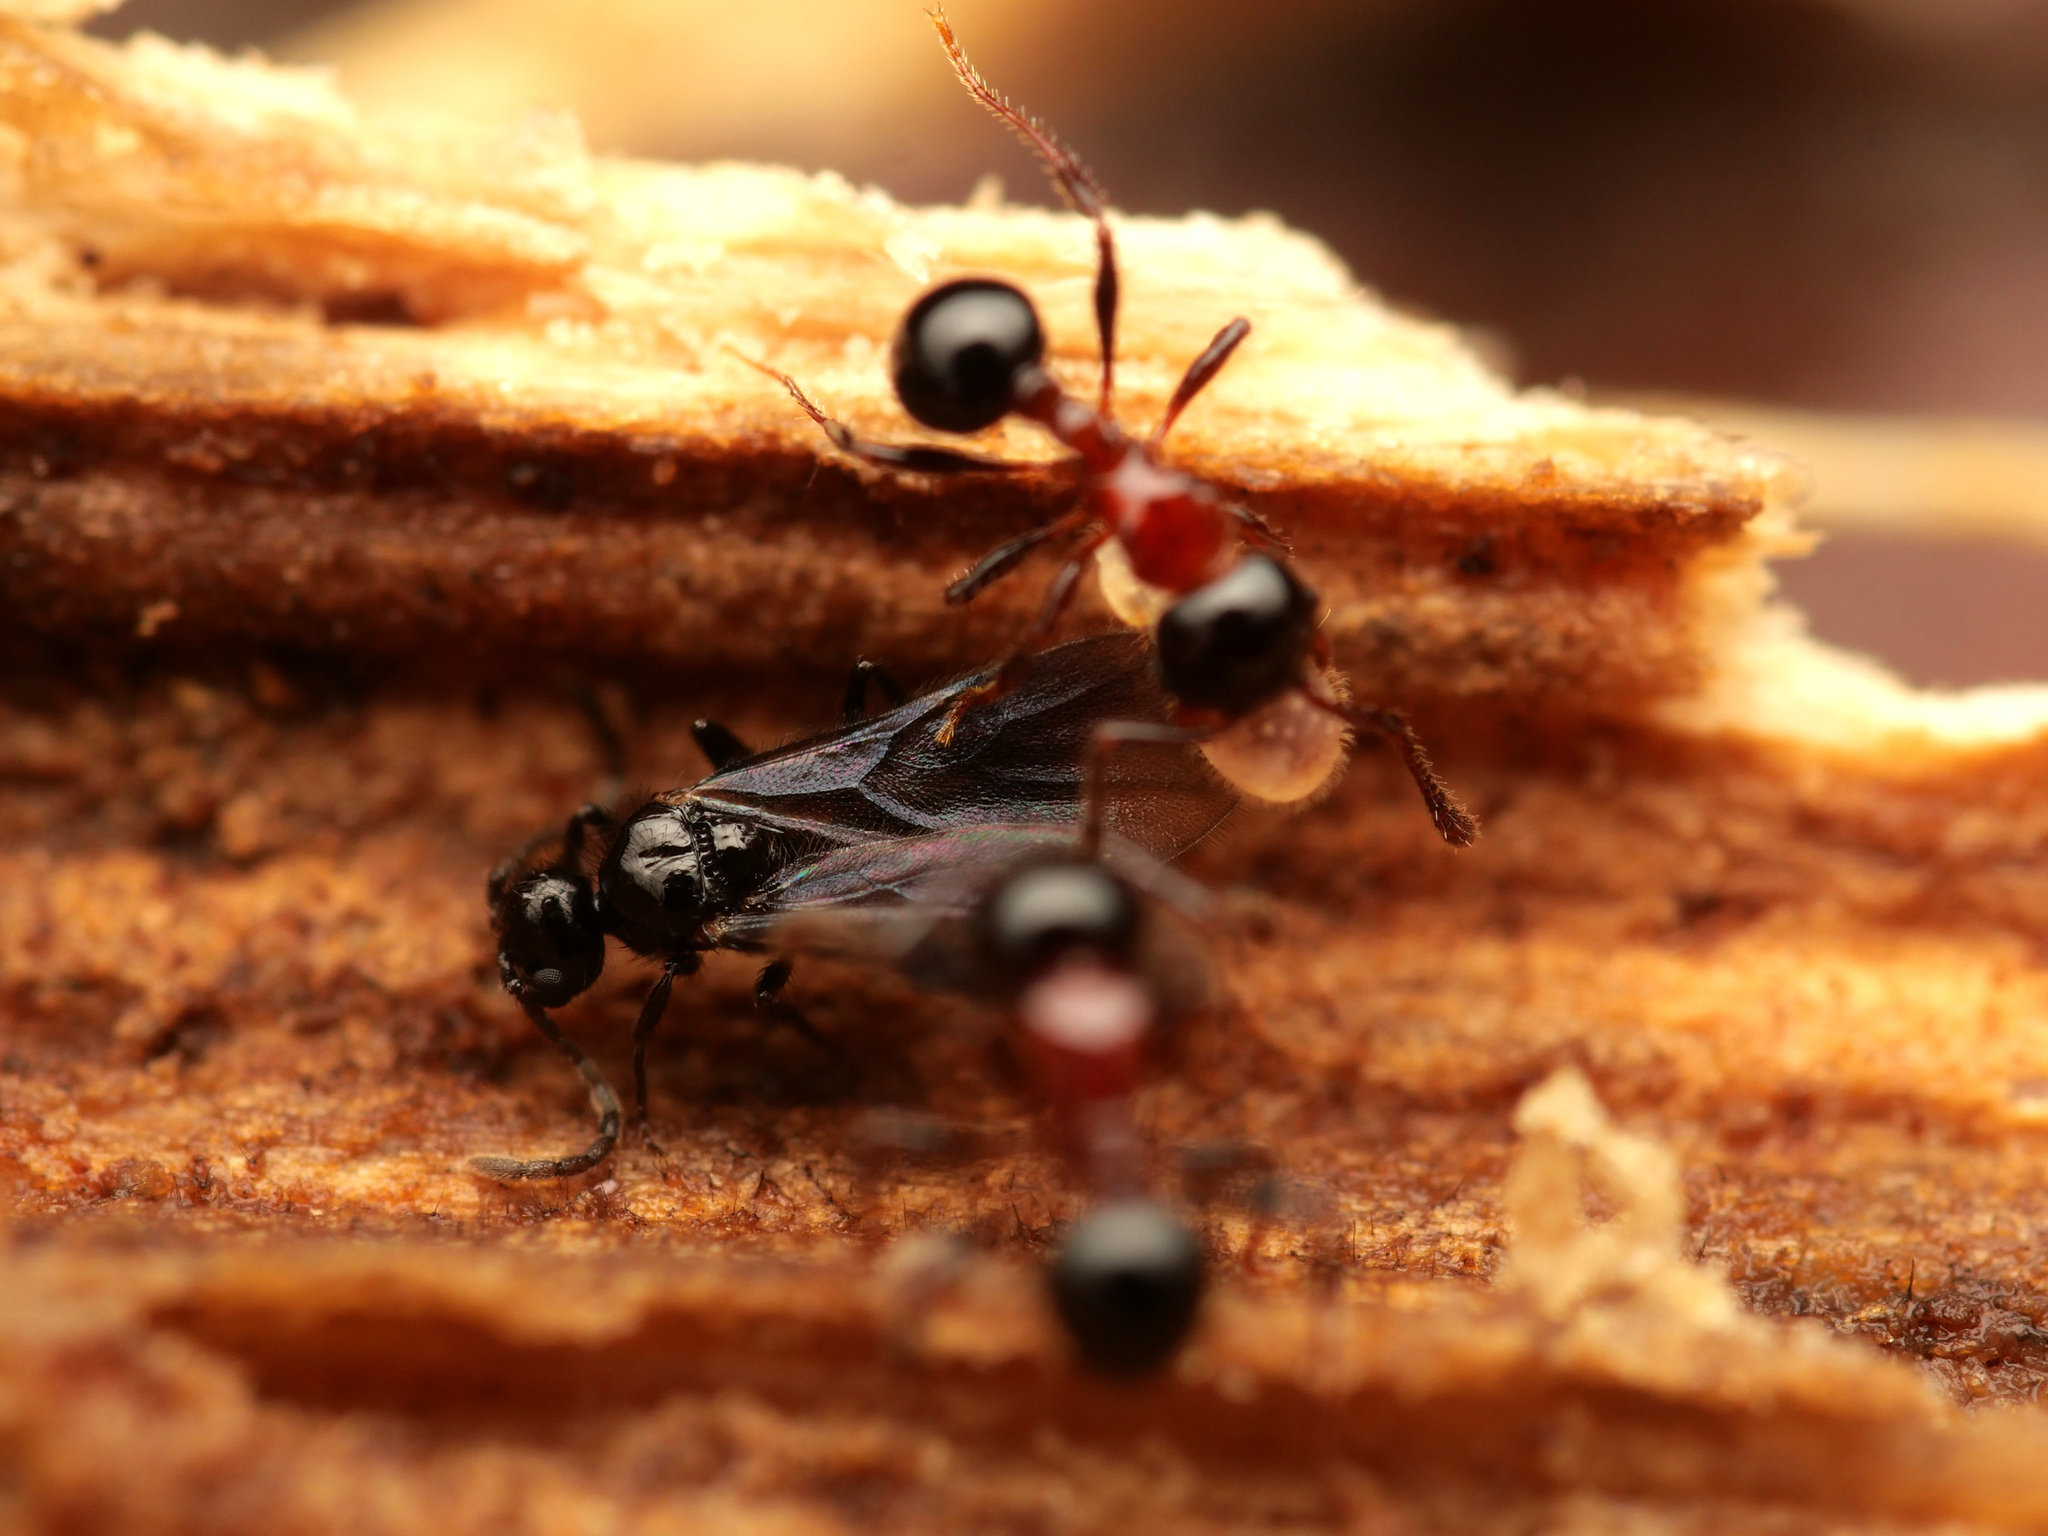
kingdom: Animalia
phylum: Arthropoda
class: Insecta
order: Hymenoptera
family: Formicidae
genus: Pristomyrmex
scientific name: Pristomyrmex
